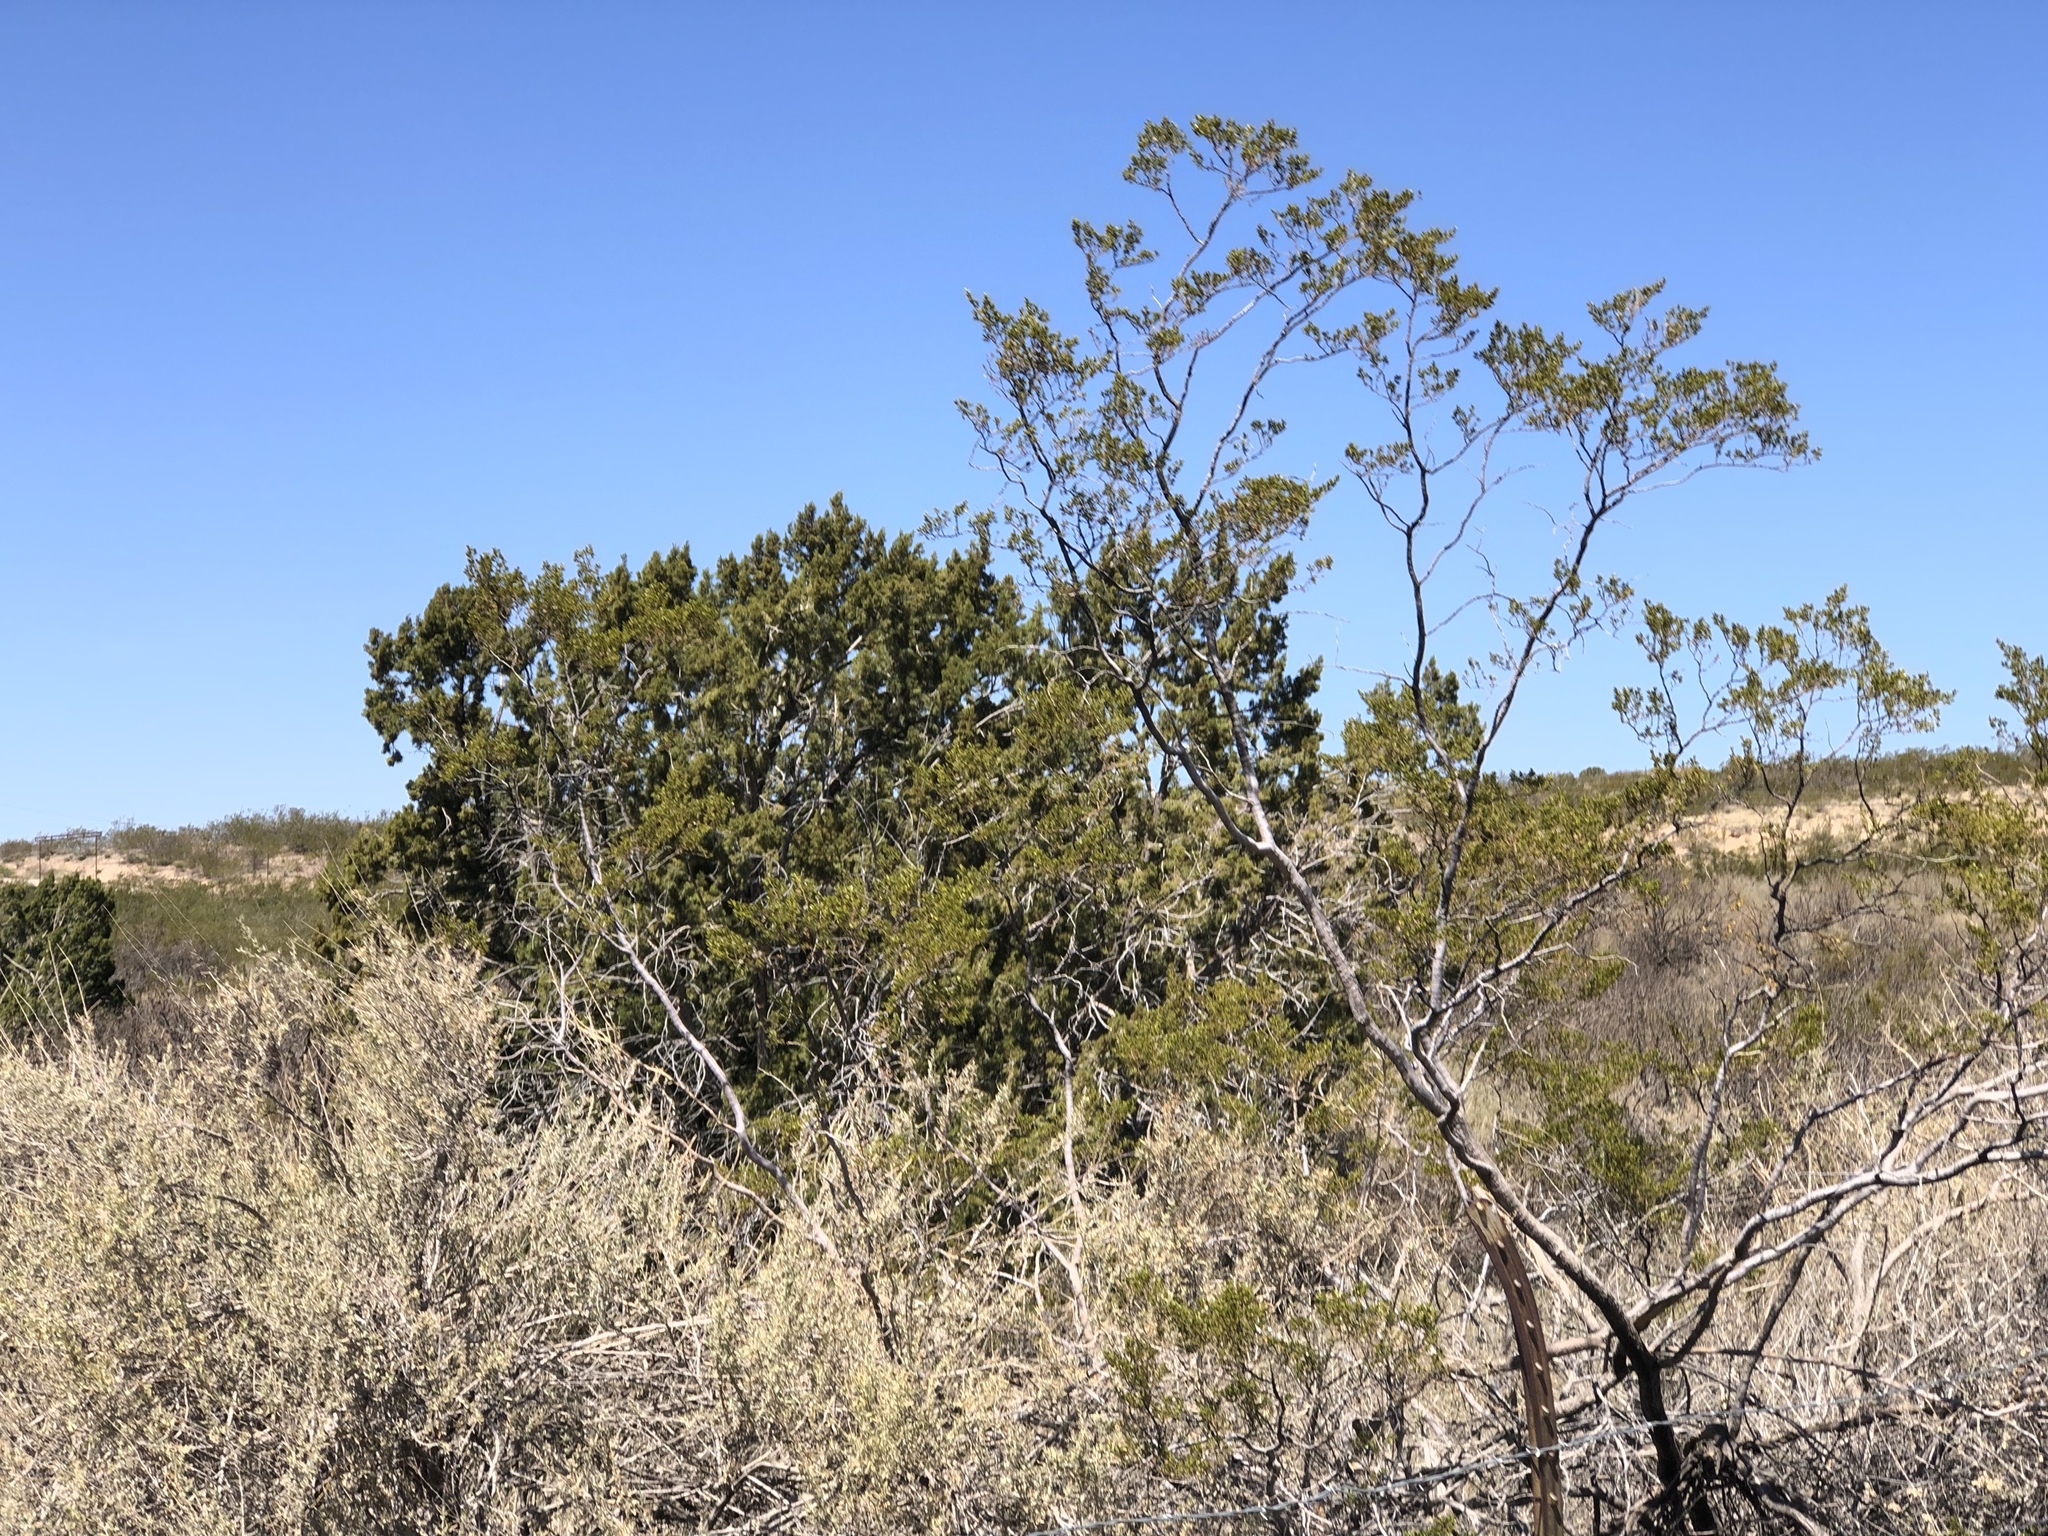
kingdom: Plantae
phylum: Tracheophyta
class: Magnoliopsida
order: Zygophyllales
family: Zygophyllaceae
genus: Larrea
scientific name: Larrea tridentata
